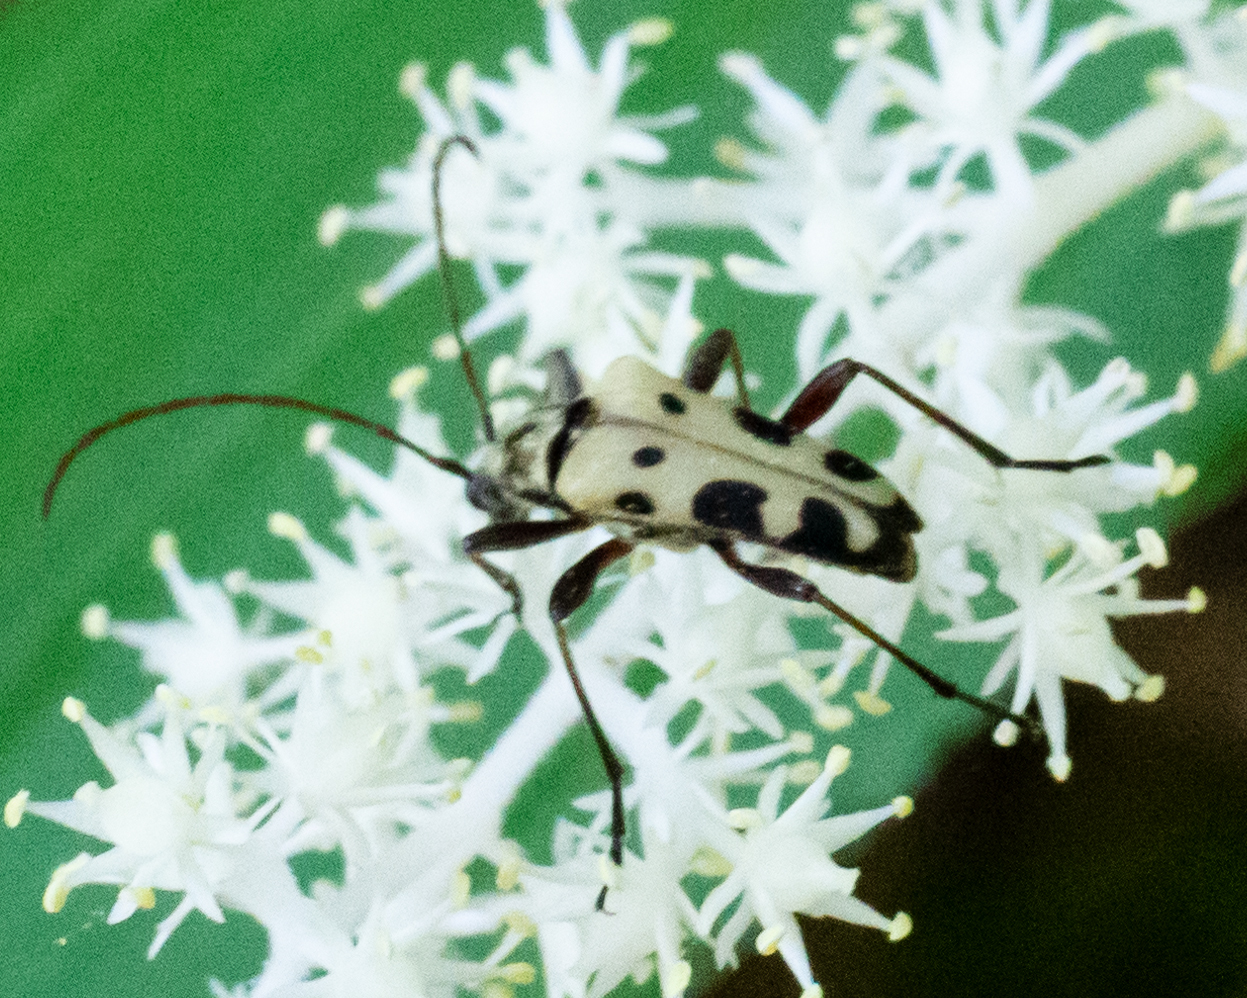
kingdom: Animalia
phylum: Arthropoda
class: Insecta
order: Coleoptera
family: Cerambycidae
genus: Evodinus
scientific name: Evodinus monticola
